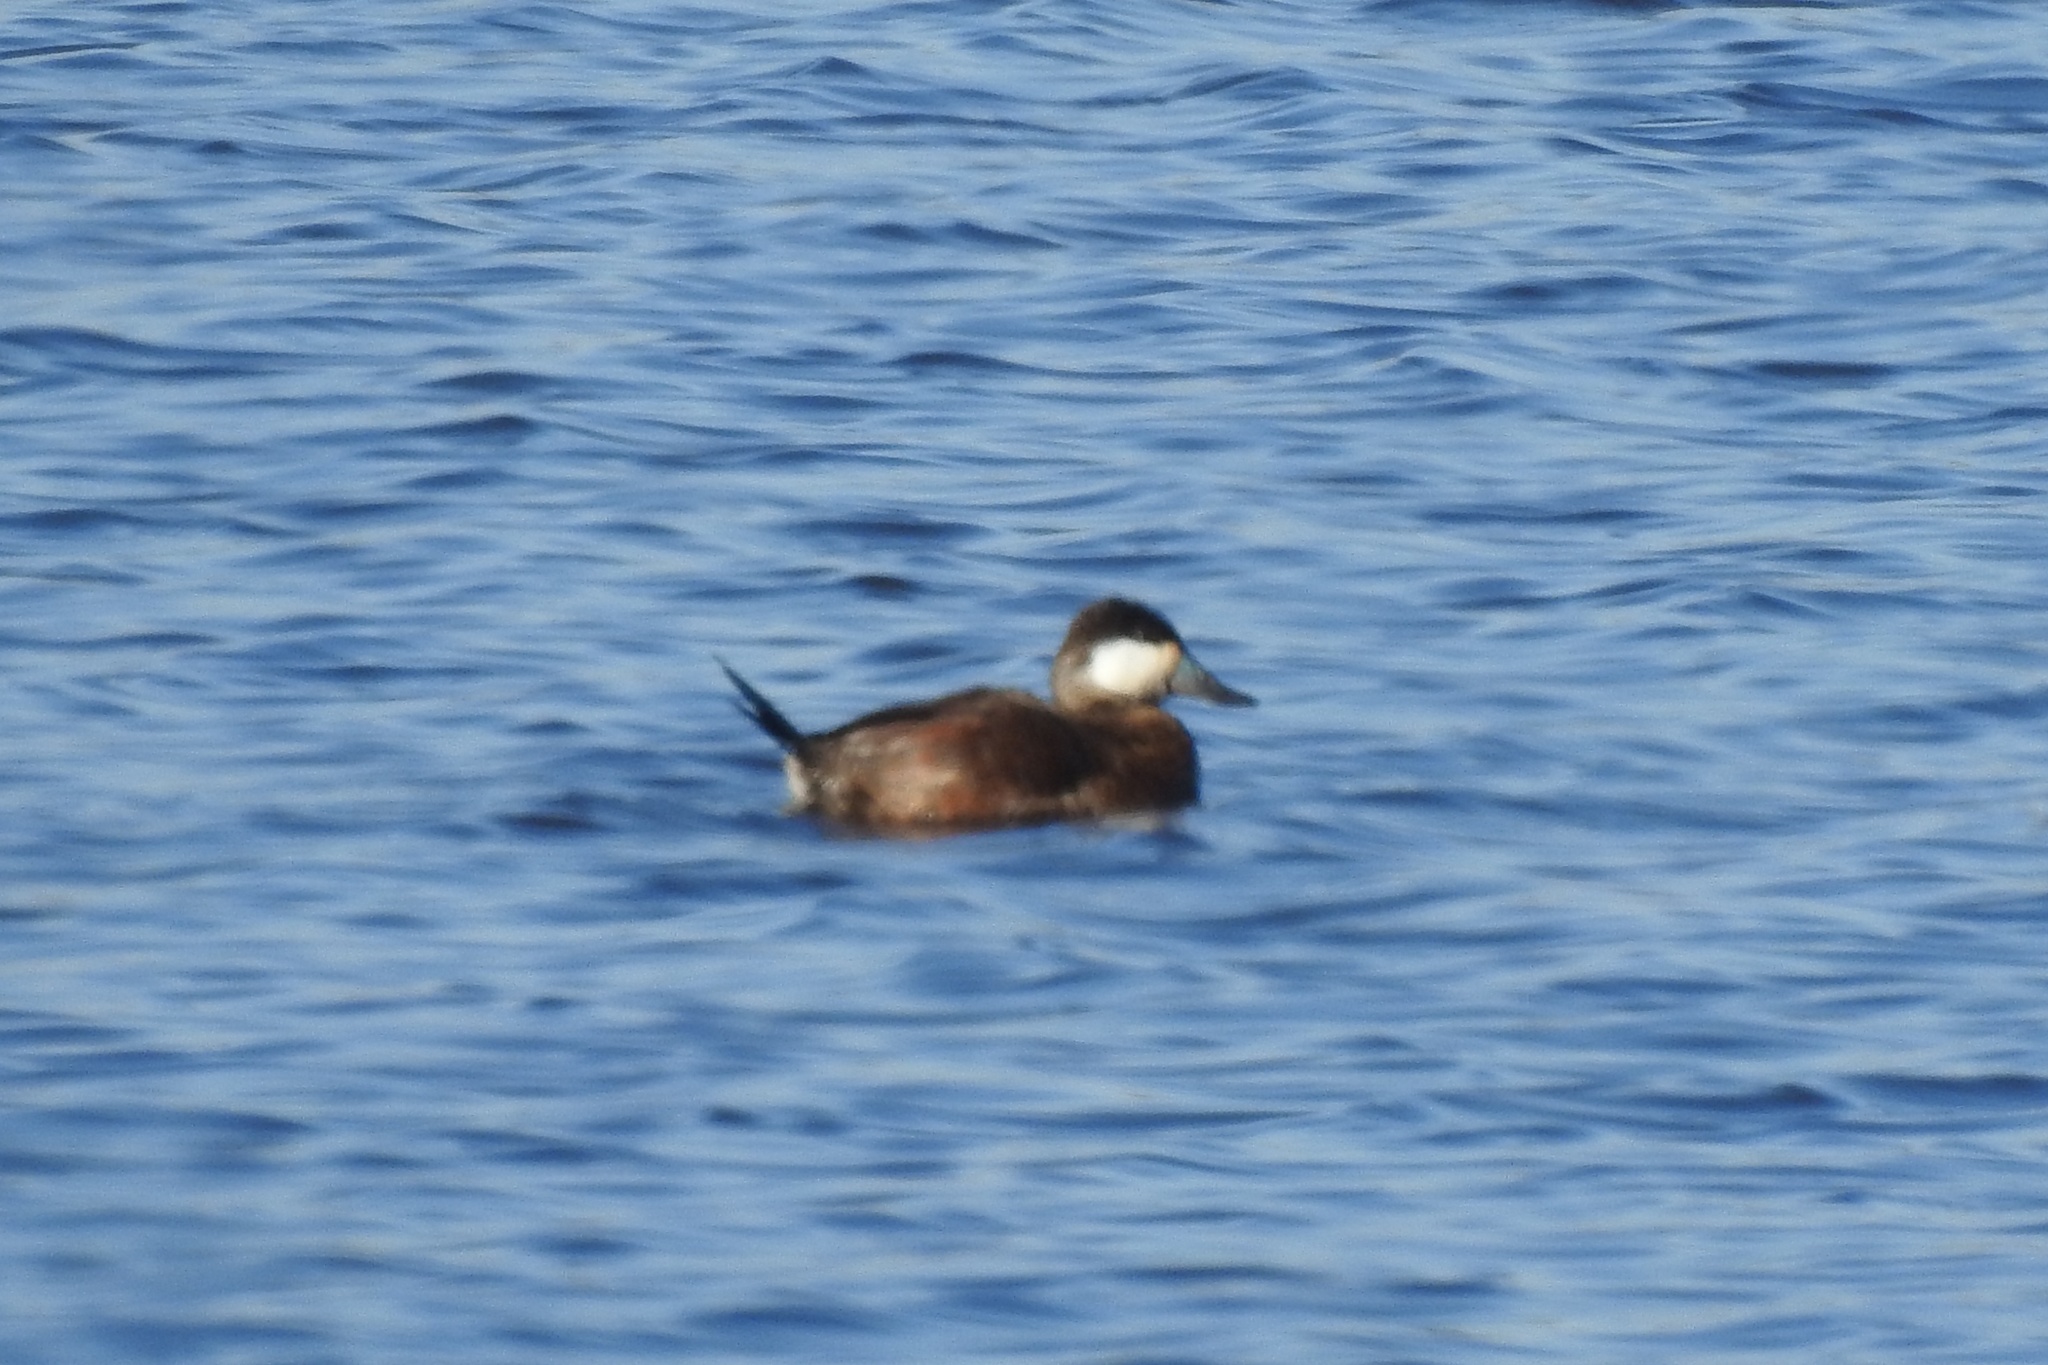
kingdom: Animalia
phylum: Chordata
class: Aves
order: Anseriformes
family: Anatidae
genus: Oxyura
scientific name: Oxyura jamaicensis
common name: Ruddy duck
